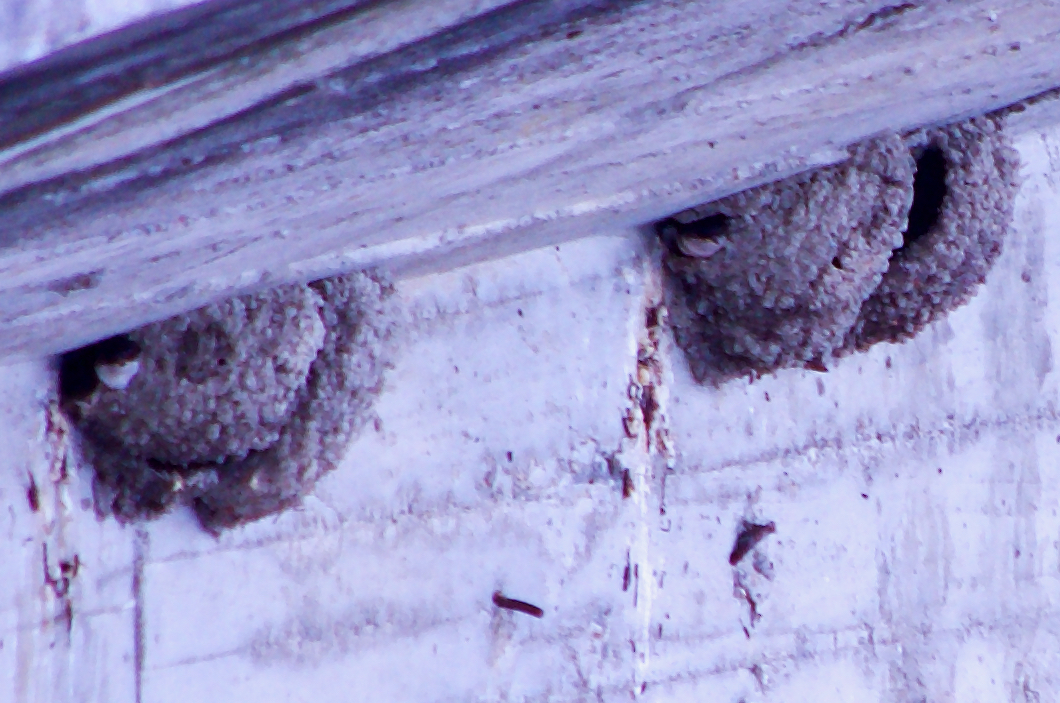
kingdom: Animalia
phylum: Chordata
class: Aves
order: Passeriformes
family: Hirundinidae
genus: Delichon
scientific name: Delichon urbicum
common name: Common house martin
